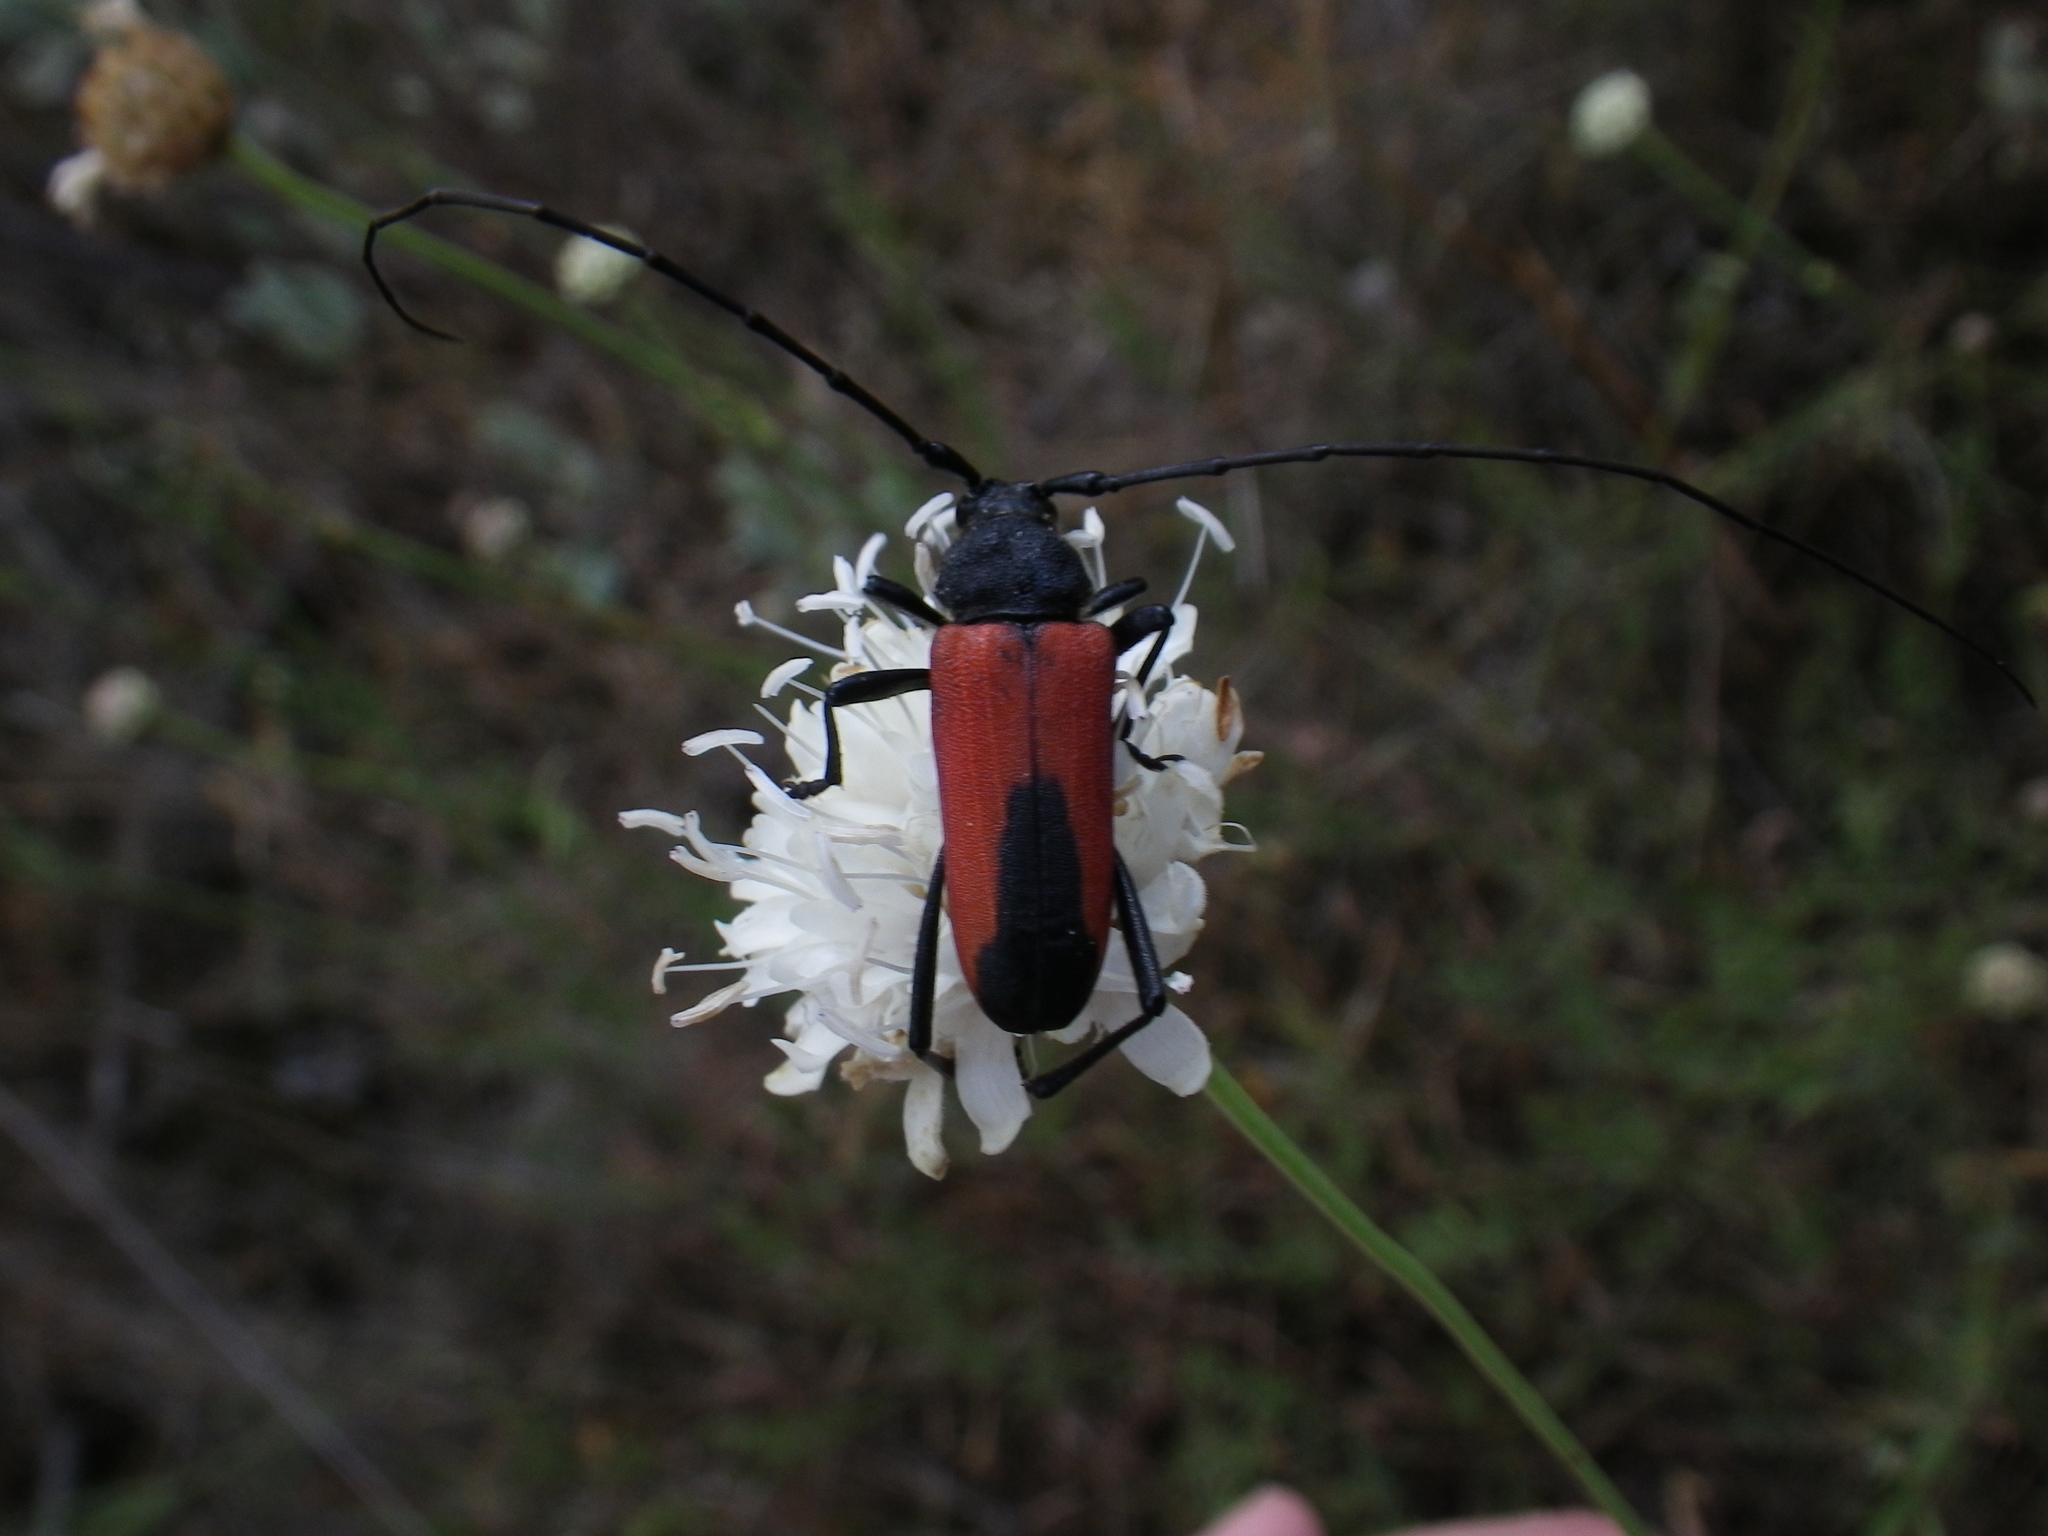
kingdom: Animalia
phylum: Arthropoda
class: Insecta
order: Coleoptera
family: Cerambycidae
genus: Purpuricenus
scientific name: Purpuricenus budensis
